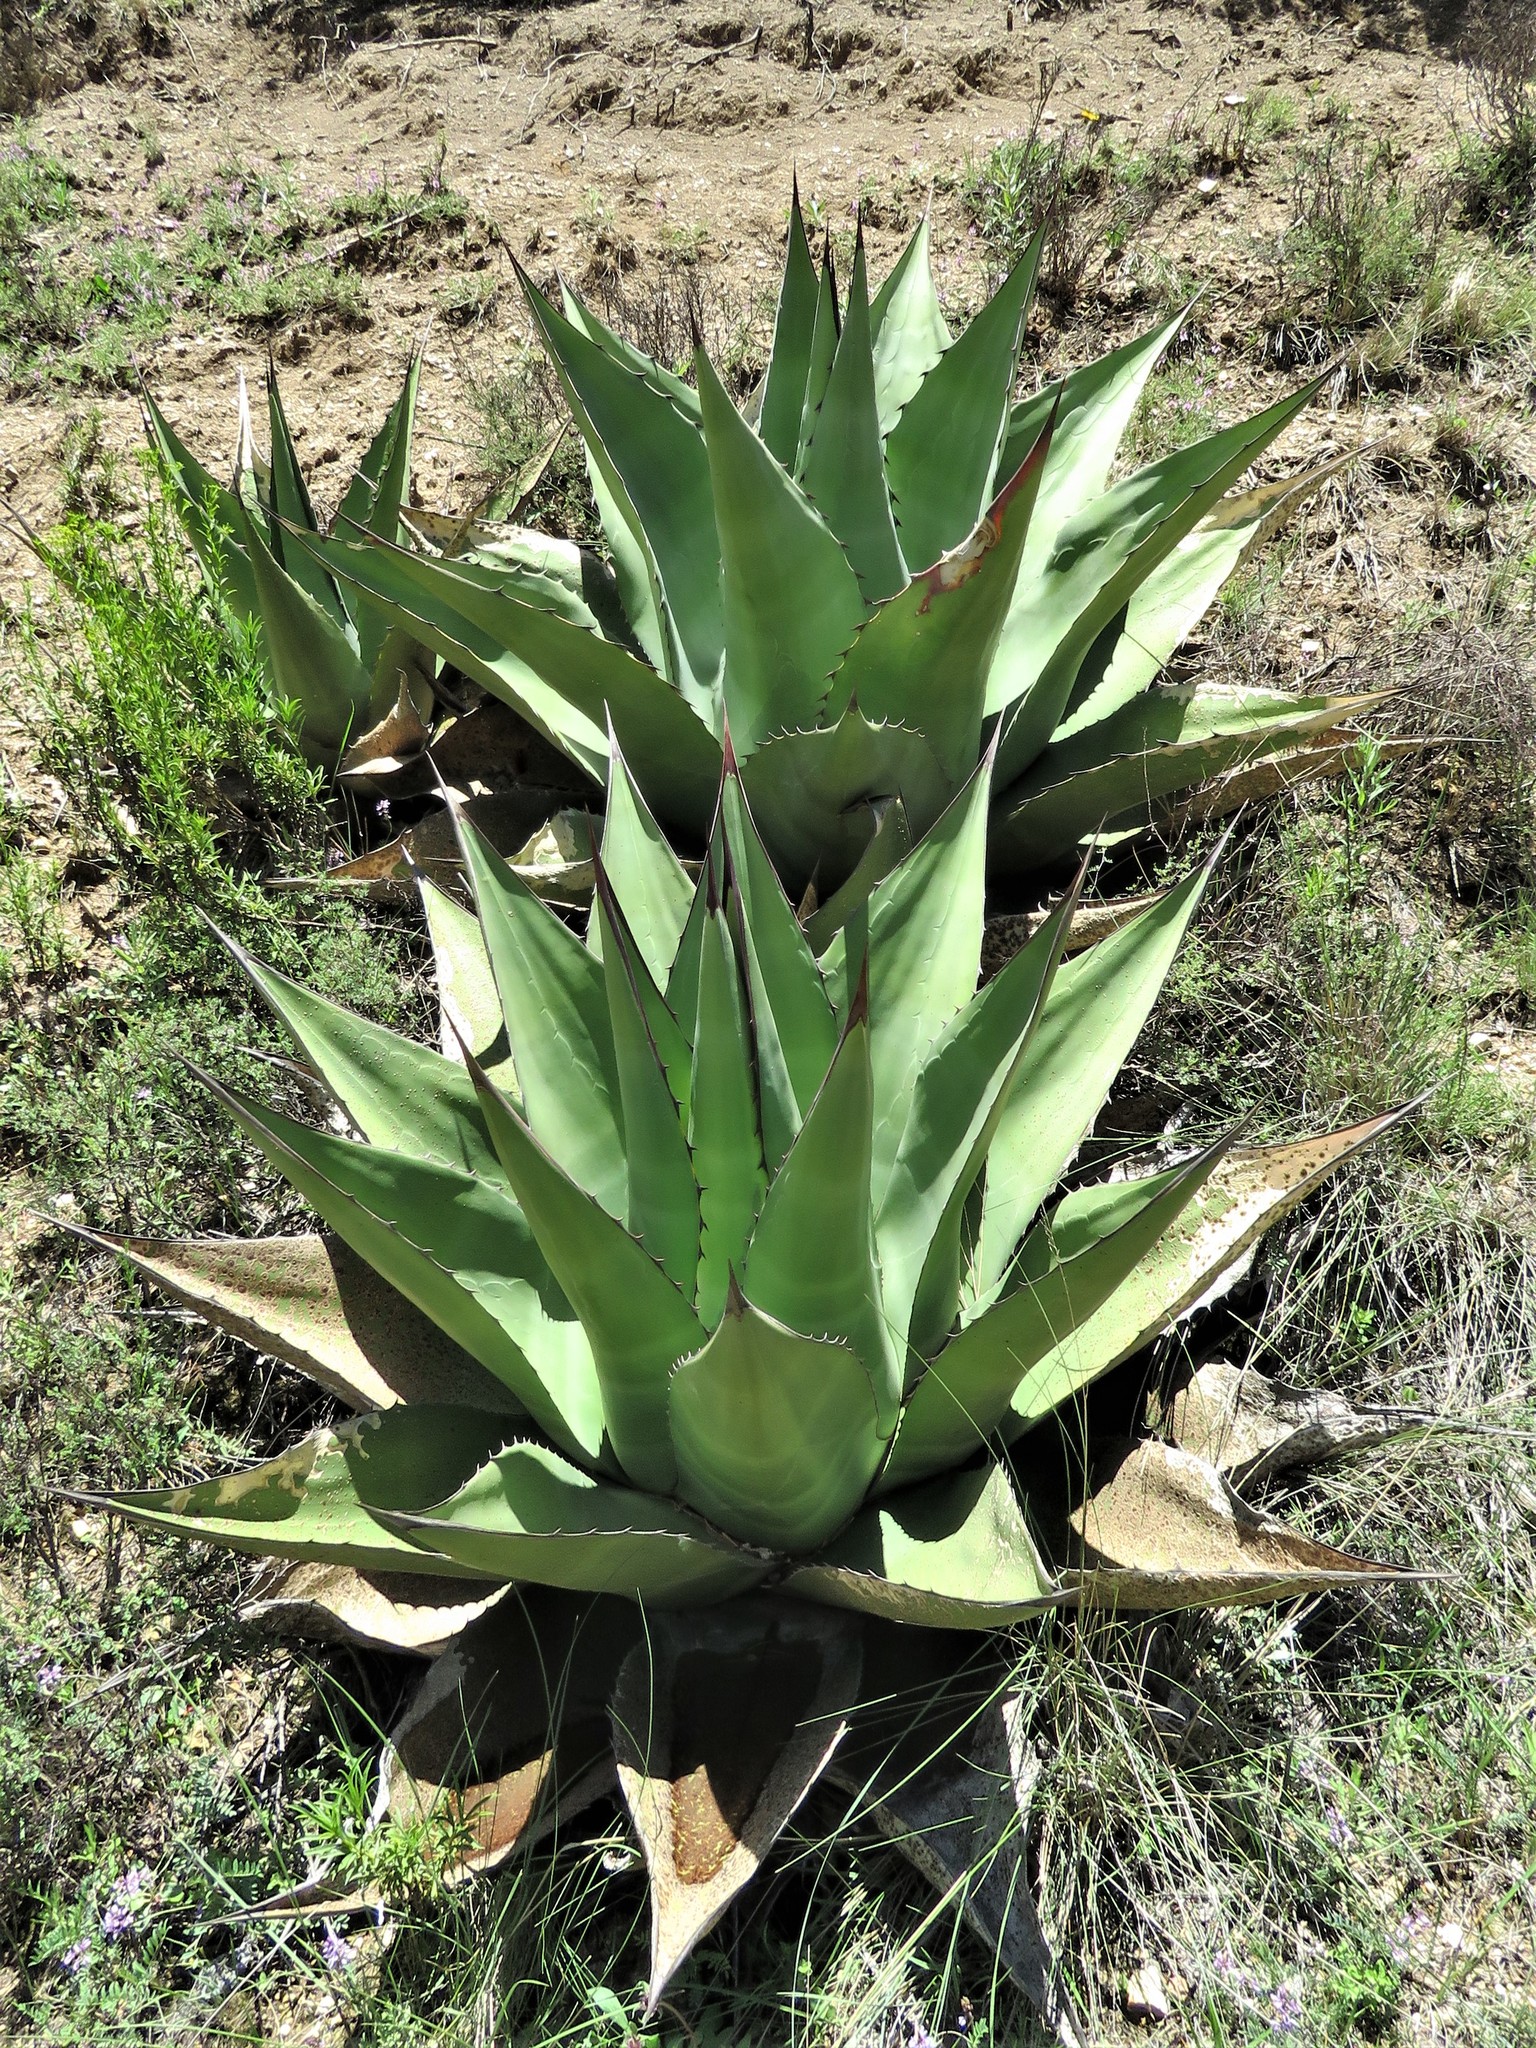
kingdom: Plantae
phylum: Tracheophyta
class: Liliopsida
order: Asparagales
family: Asparagaceae
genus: Agave
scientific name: Agave gentryi
